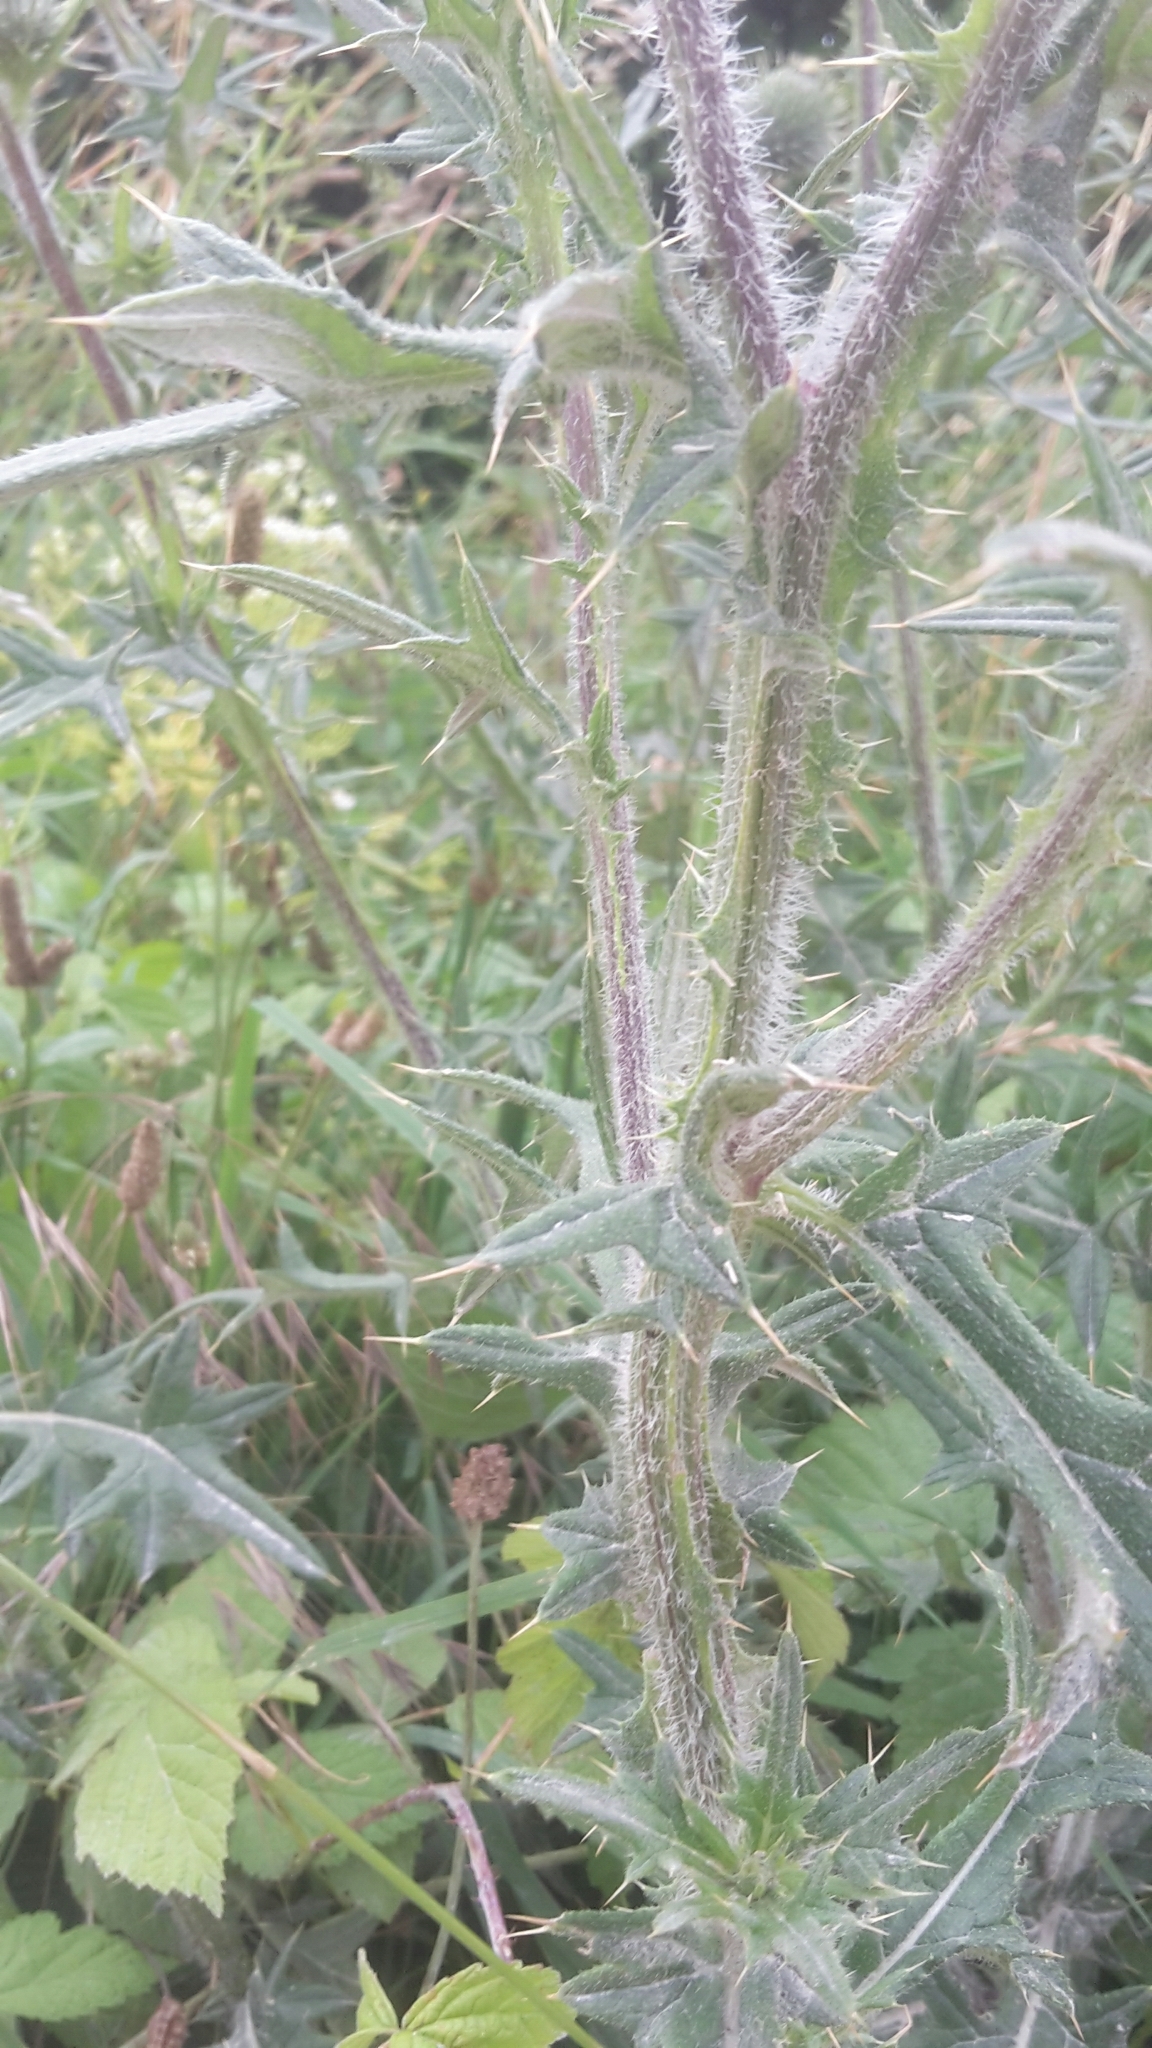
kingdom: Plantae
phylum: Tracheophyta
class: Magnoliopsida
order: Asterales
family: Asteraceae
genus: Cirsium
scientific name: Cirsium vulgare
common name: Bull thistle
